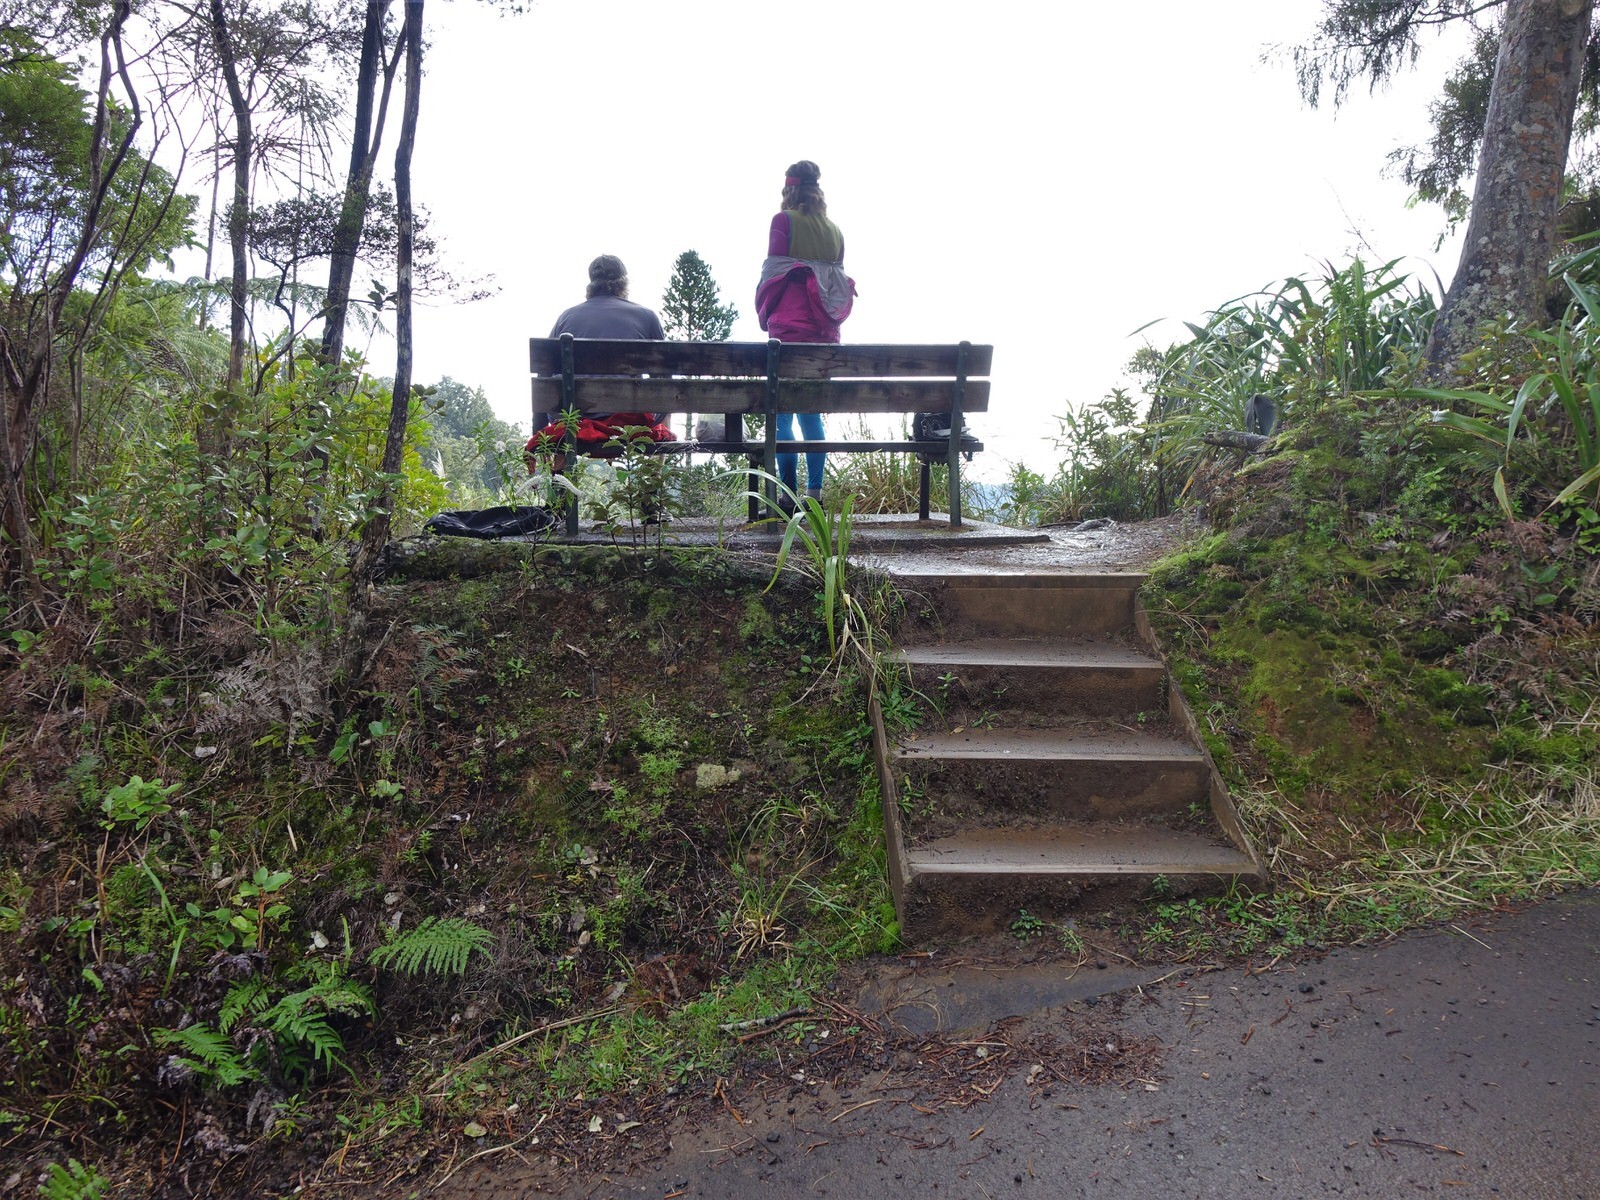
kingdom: Plantae
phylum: Tracheophyta
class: Magnoliopsida
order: Ericales
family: Ericaceae
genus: Gaultheria
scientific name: Gaultheria antipoda
